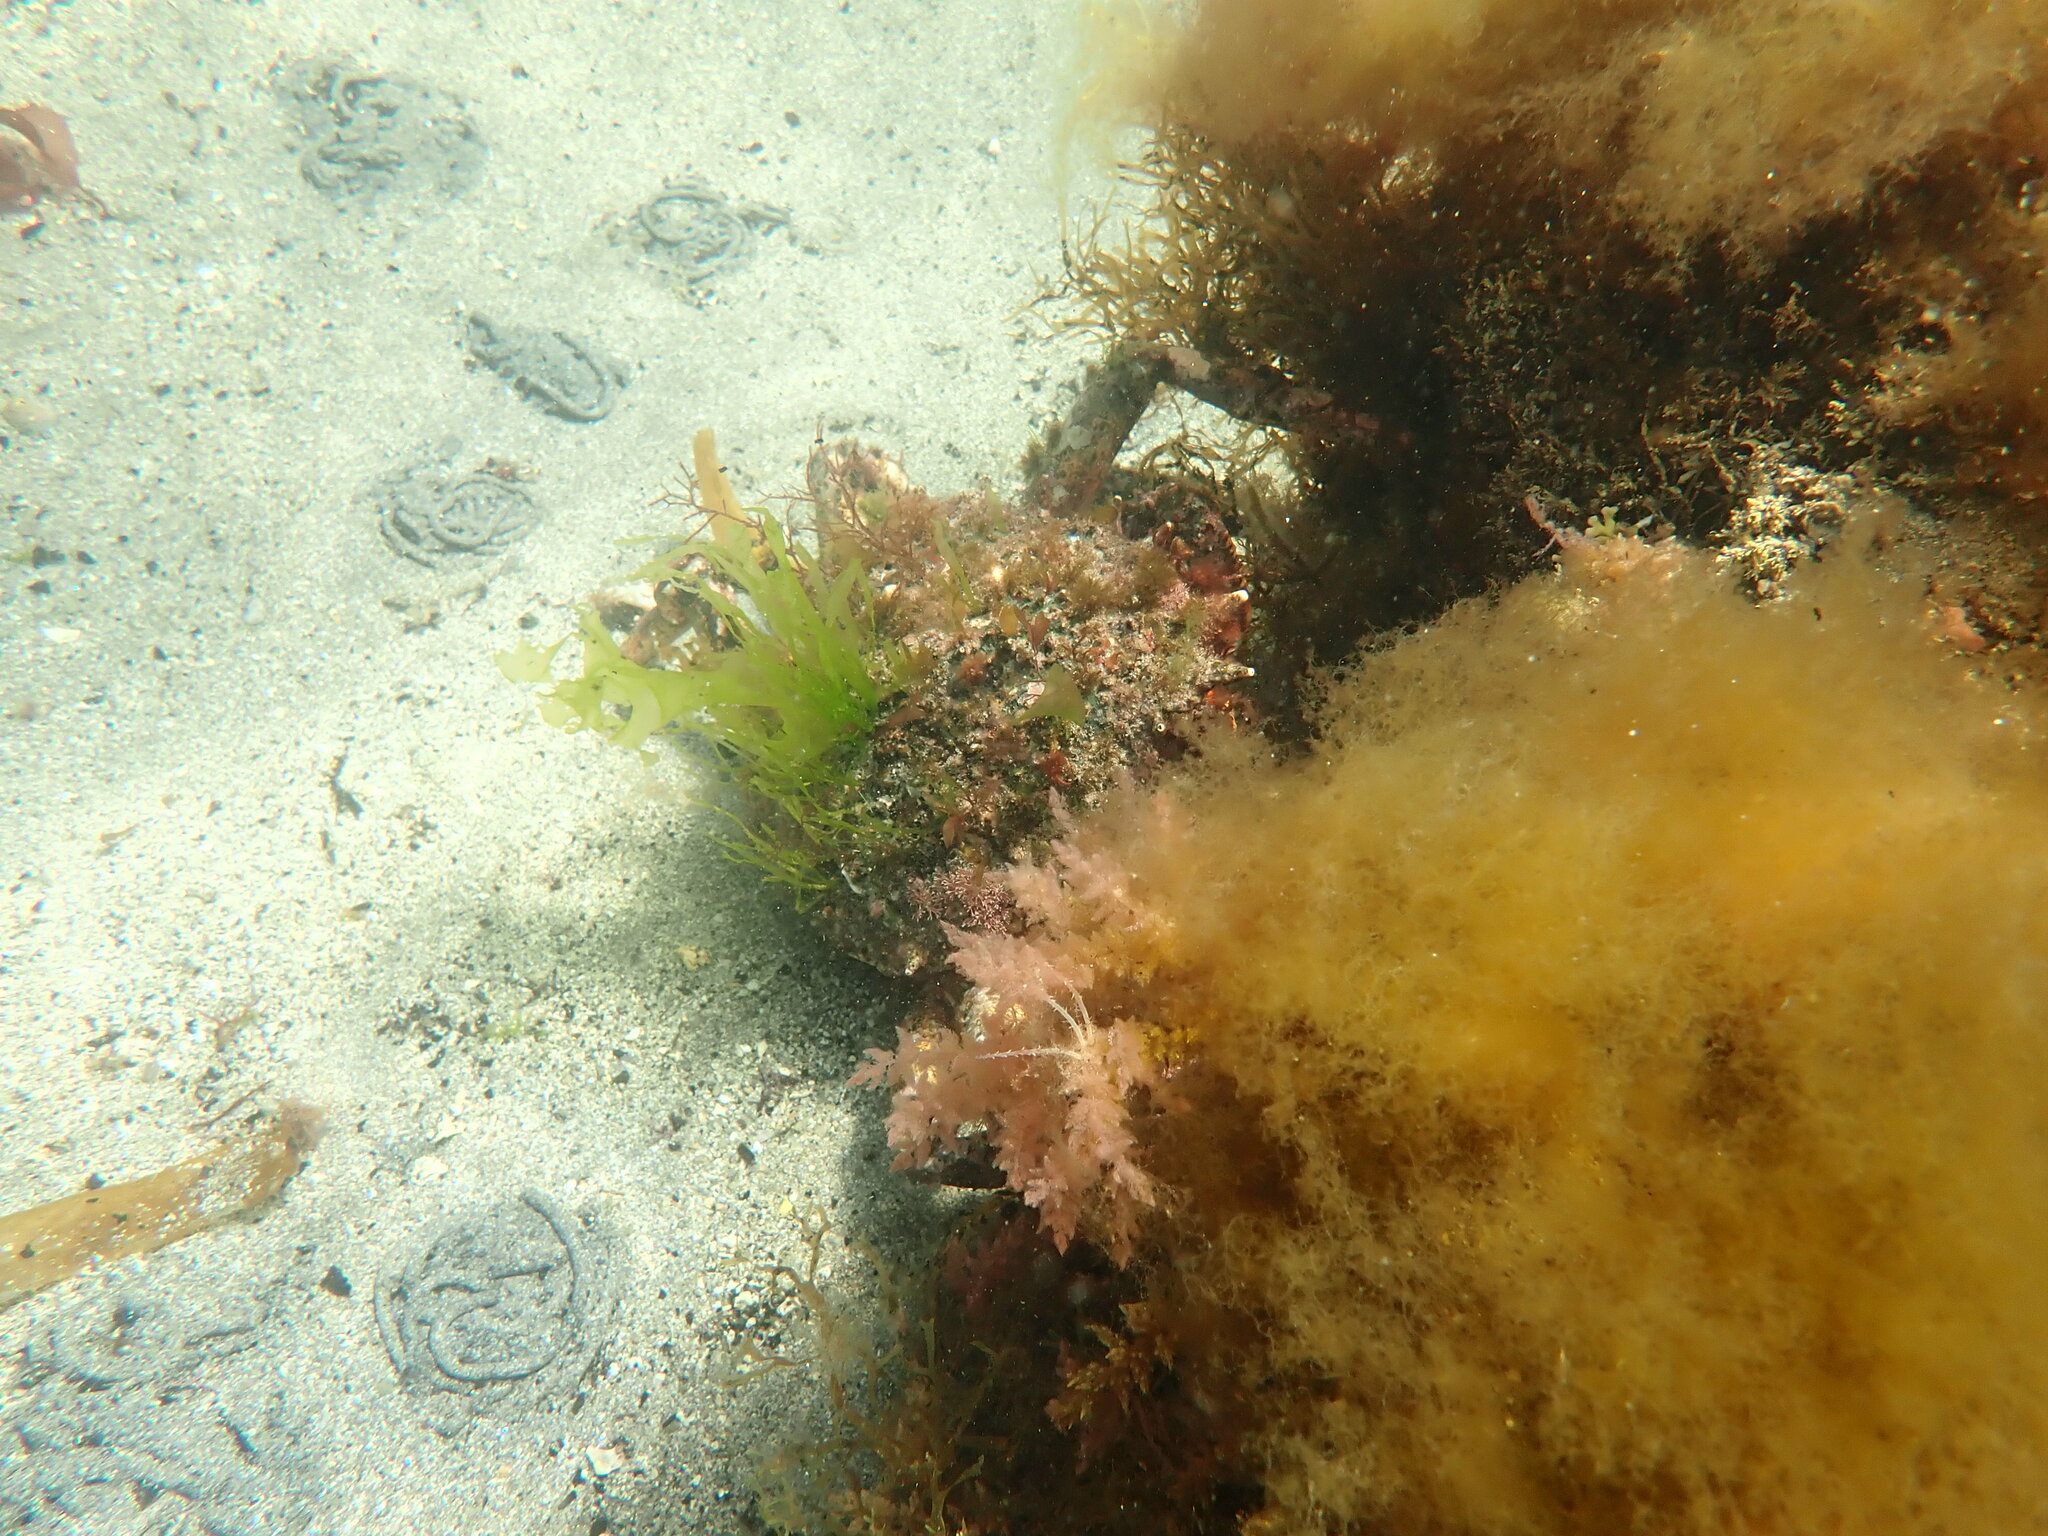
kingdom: Animalia
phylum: Arthropoda
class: Malacostraca
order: Decapoda
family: Majidae
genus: Maja
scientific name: Maja brachydactyla
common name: Common spider crab
